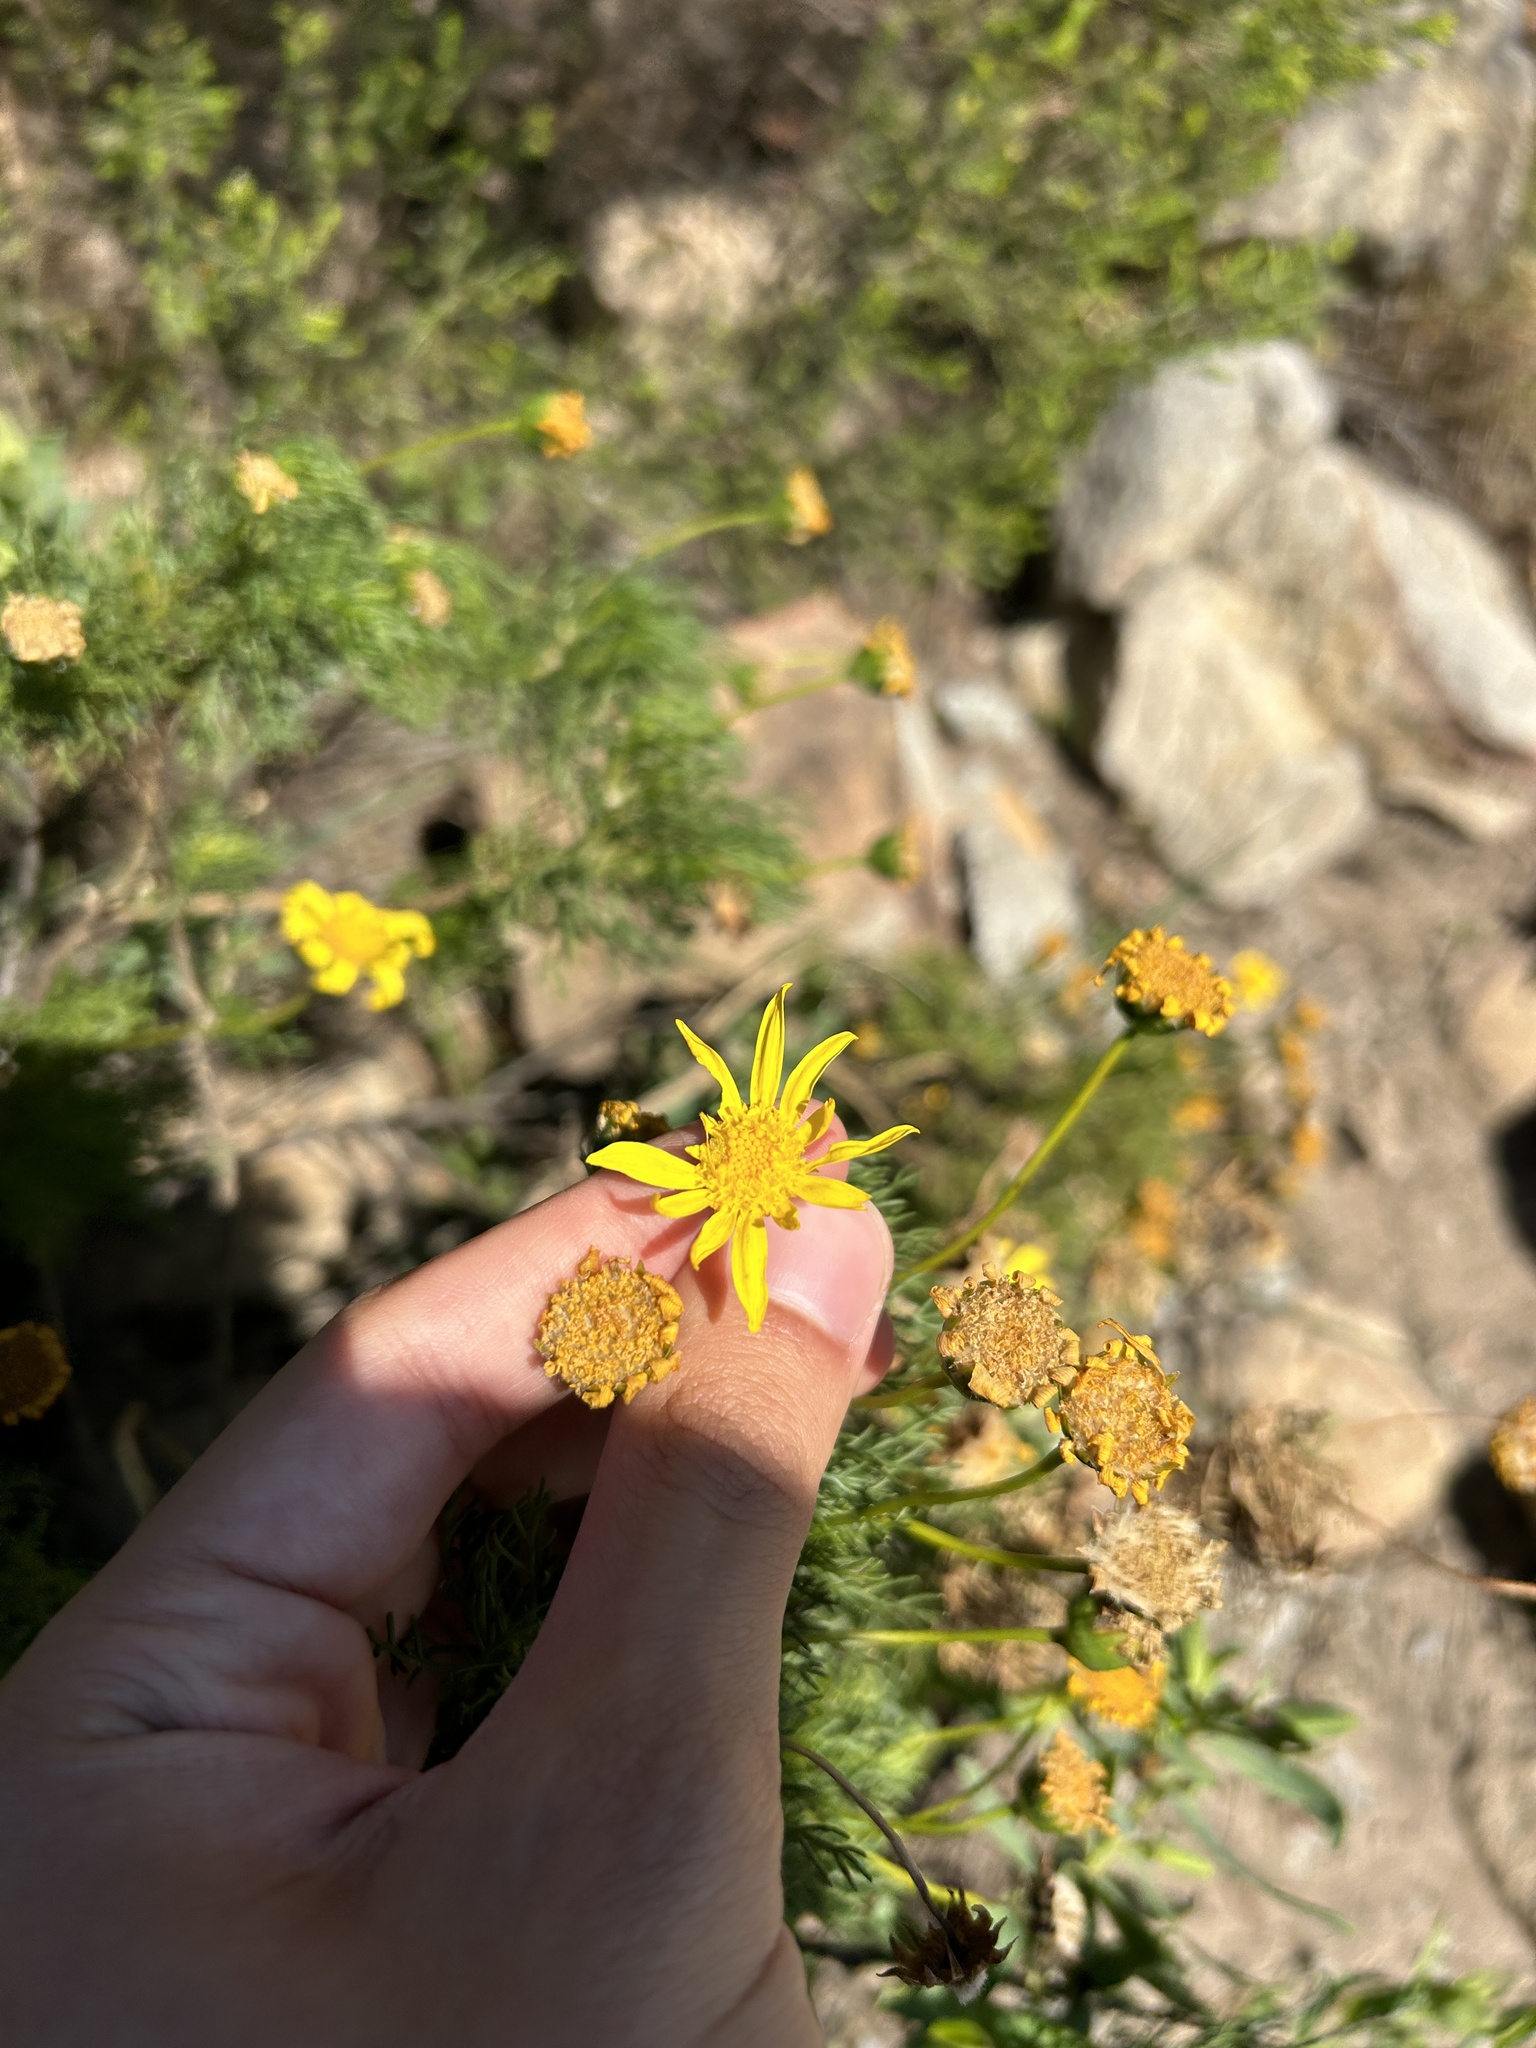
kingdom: Plantae
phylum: Tracheophyta
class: Magnoliopsida
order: Asterales
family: Asteraceae
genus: Euryops
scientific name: Euryops abrotanifolius
